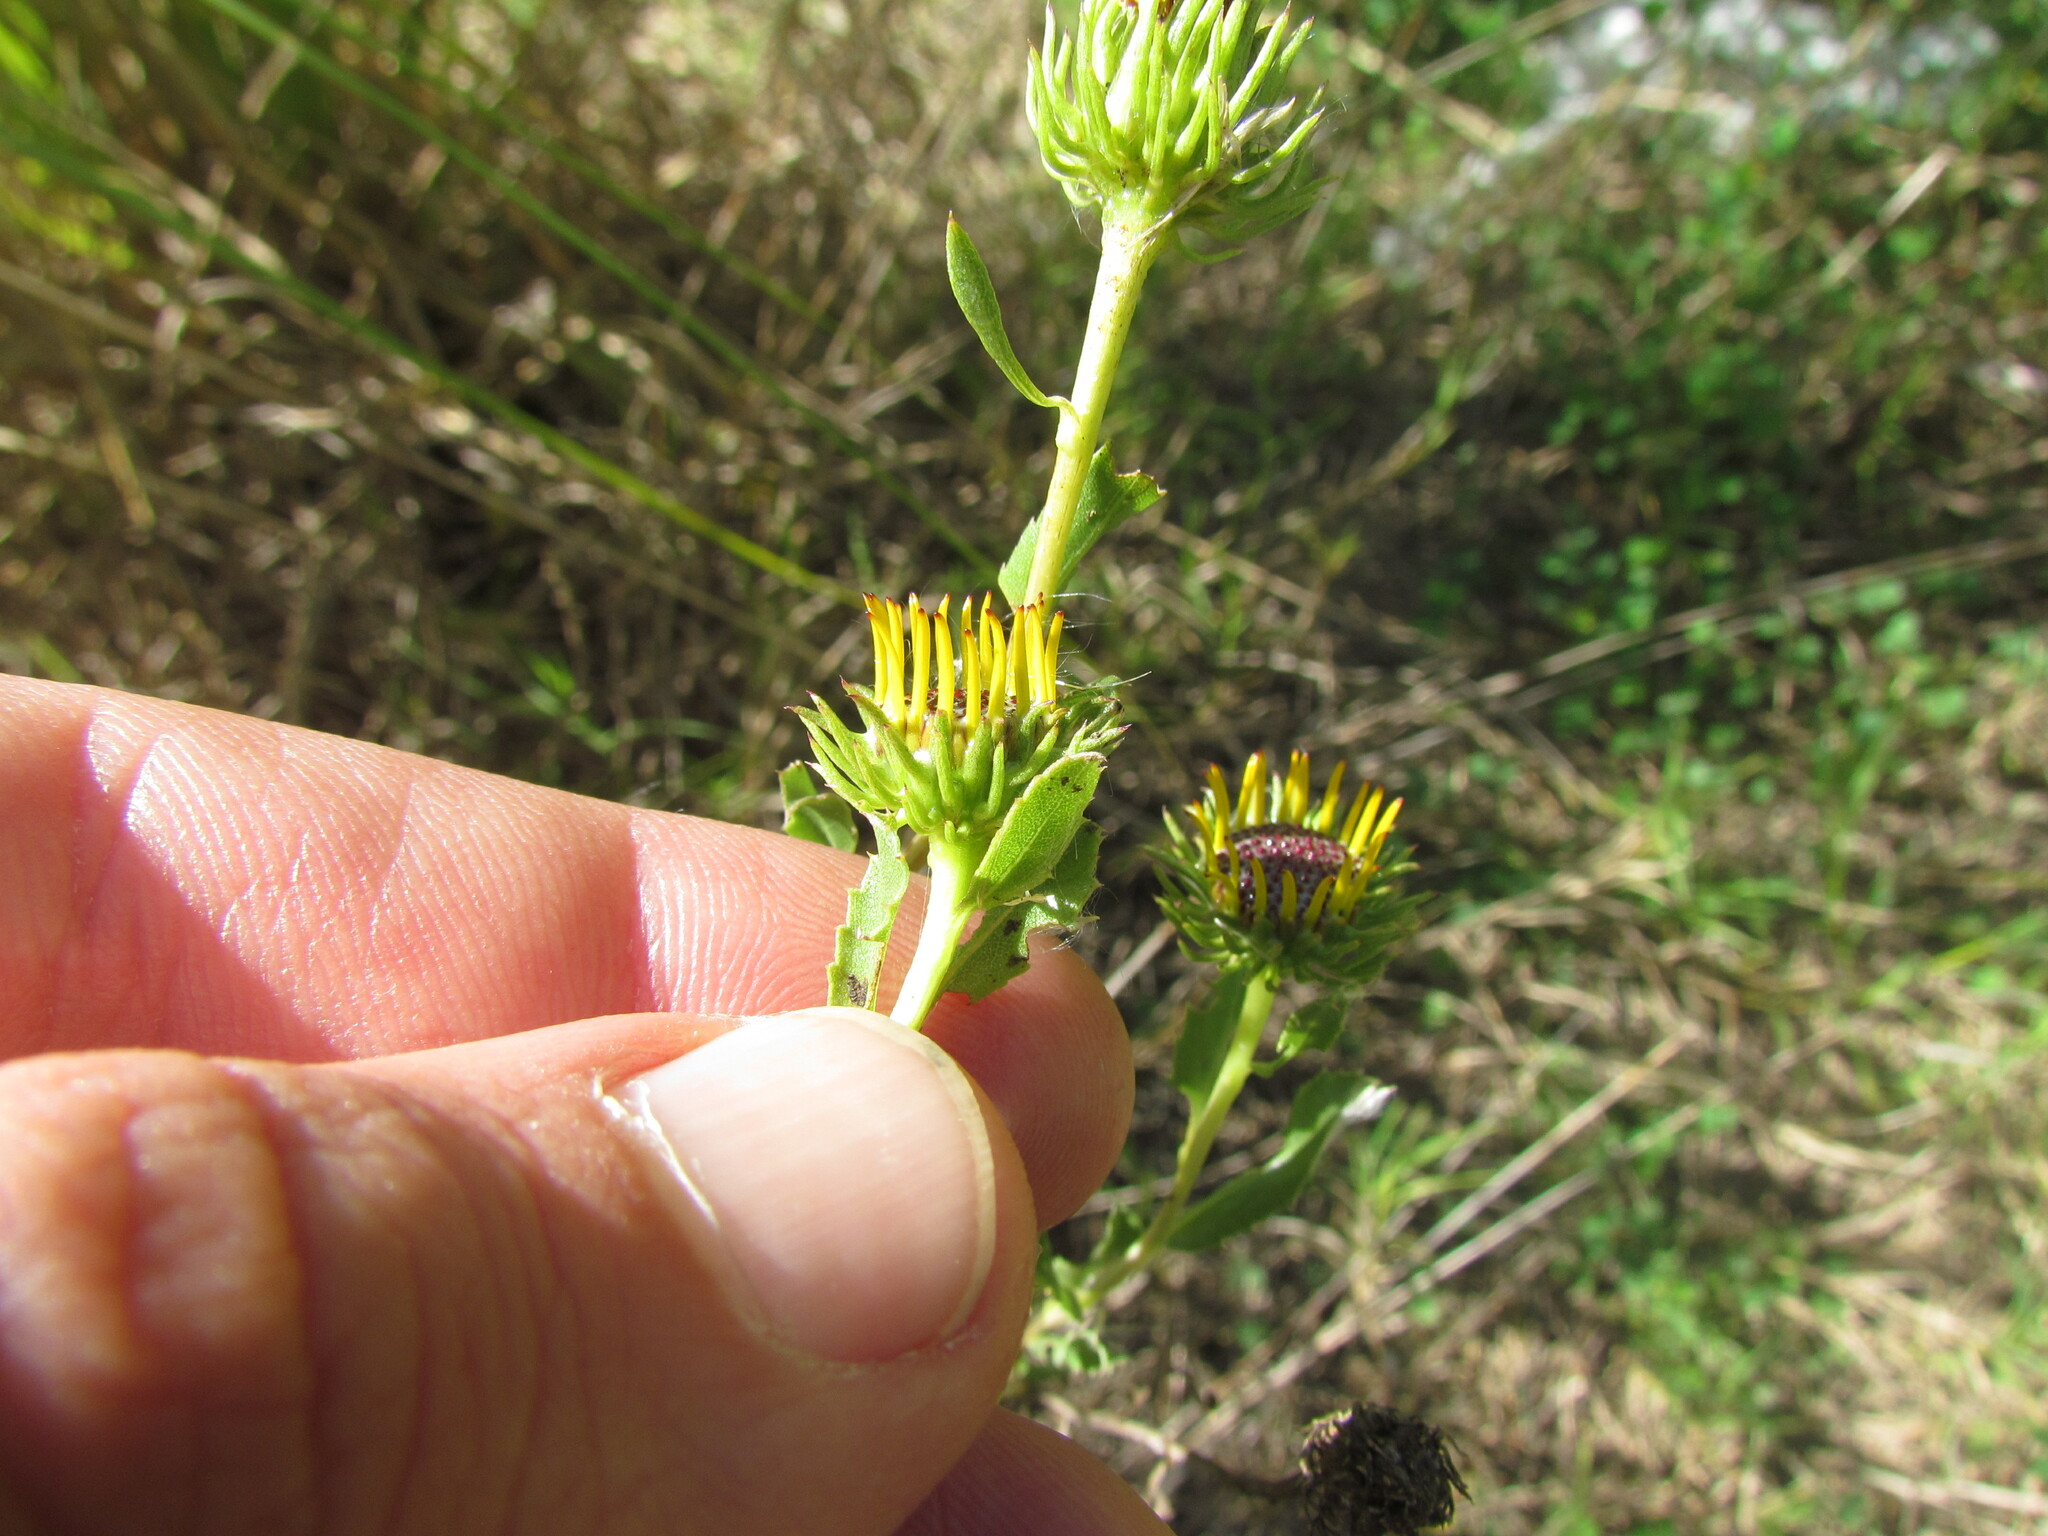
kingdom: Plantae
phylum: Tracheophyta
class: Magnoliopsida
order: Asterales
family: Asteraceae
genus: Grindelia
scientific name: Grindelia pulchella
